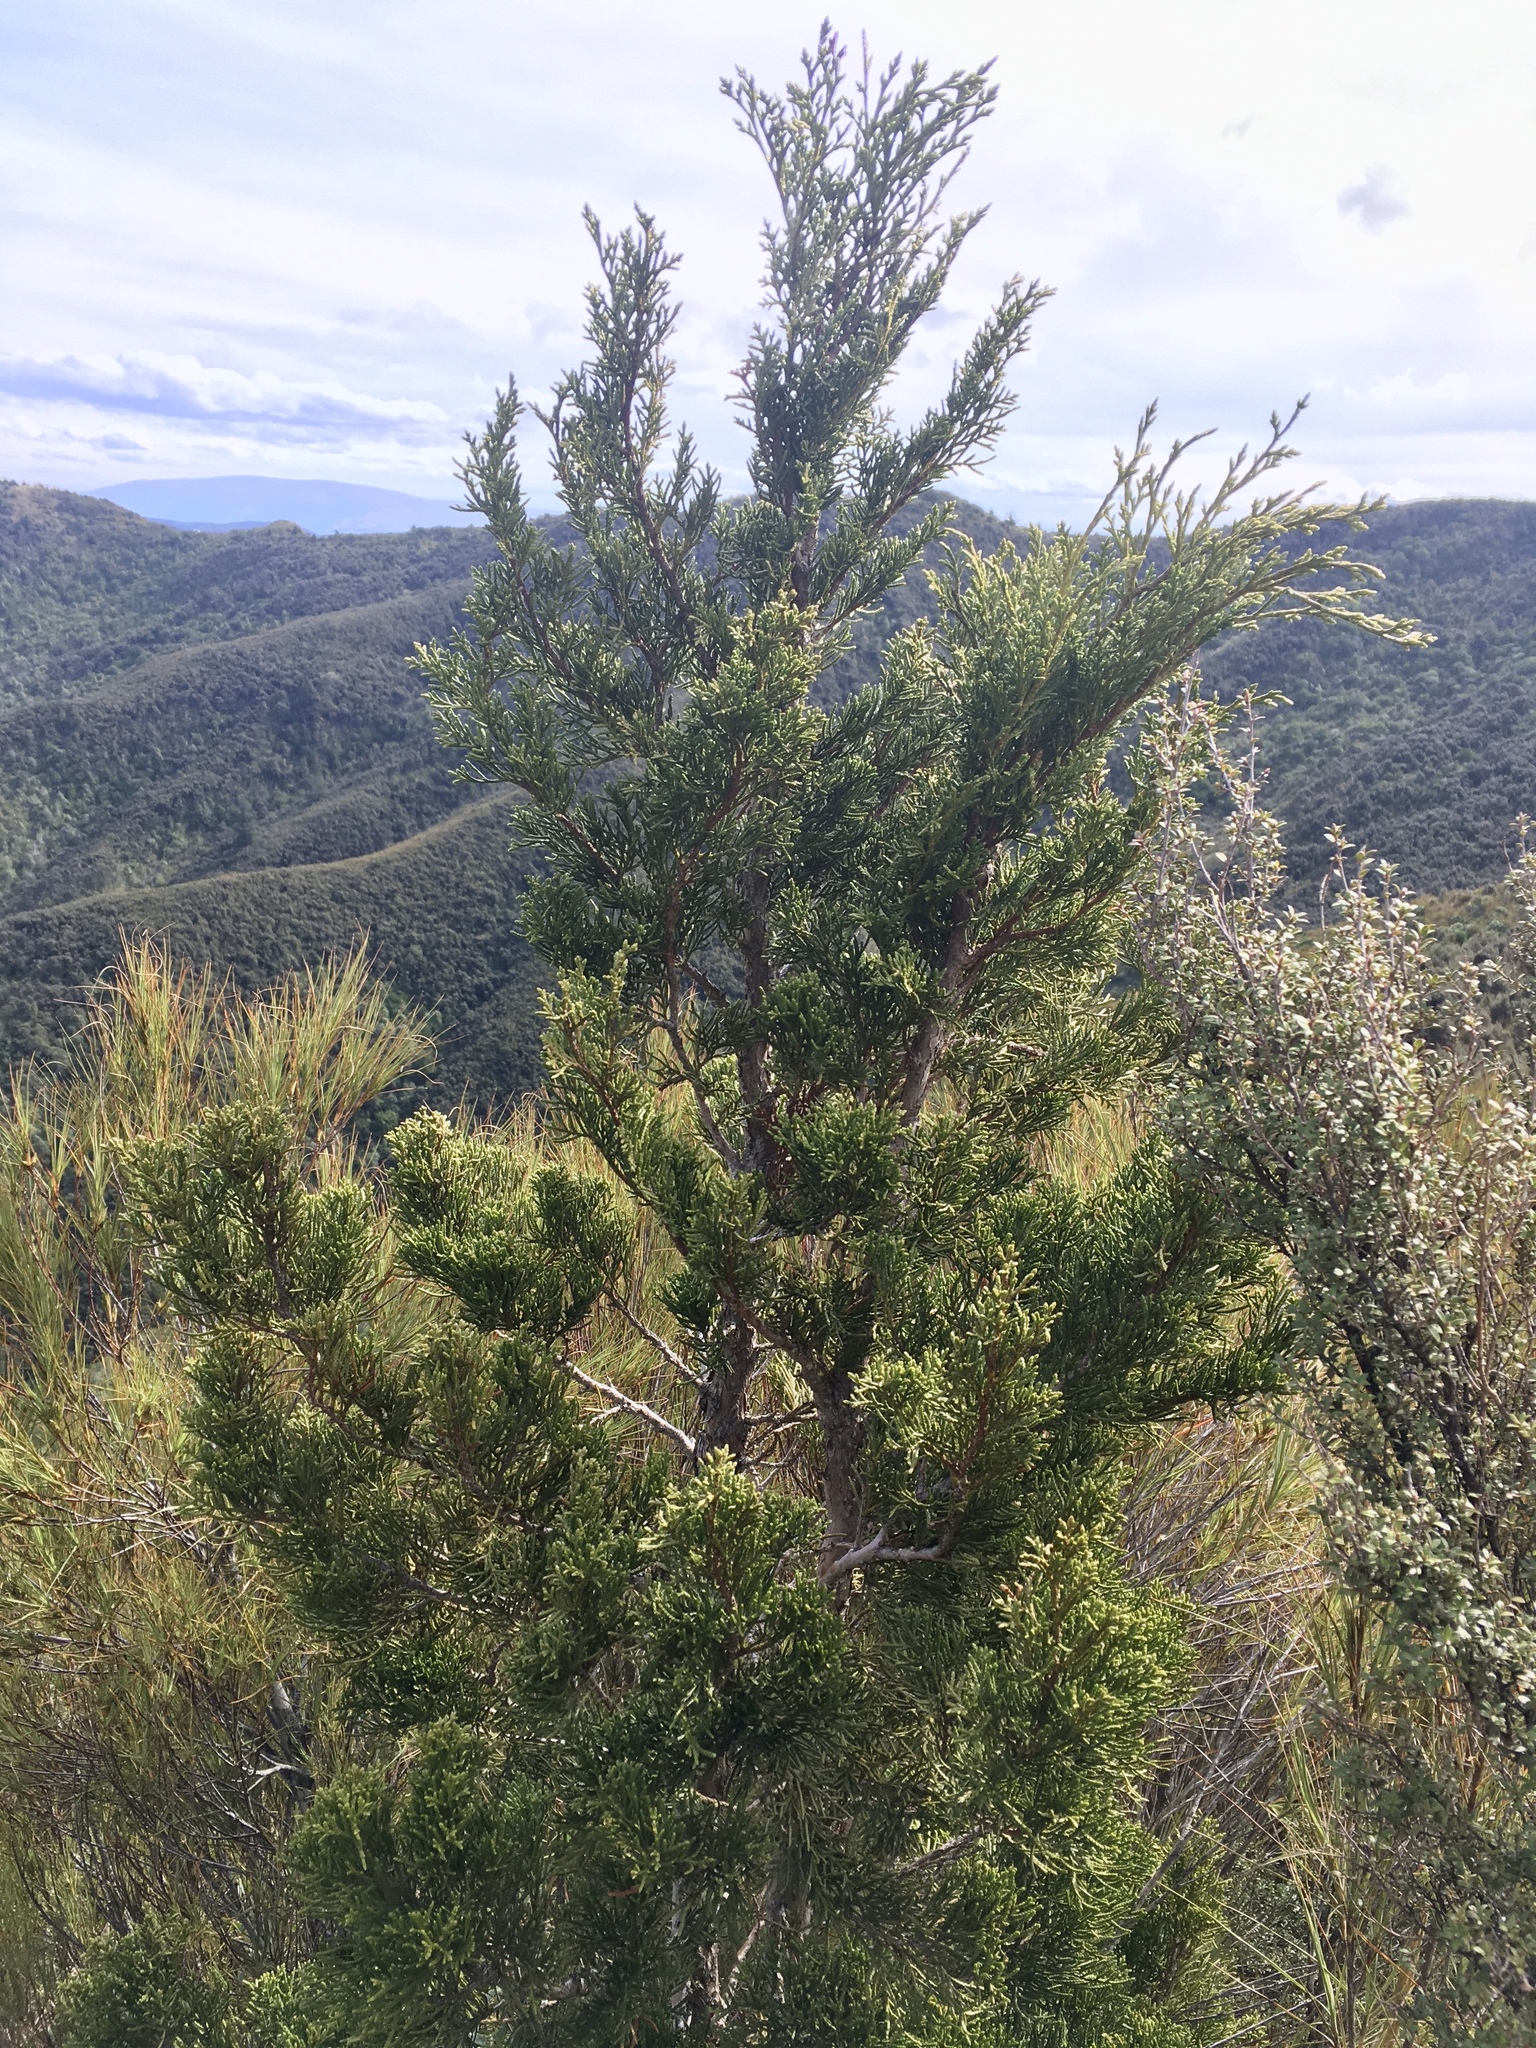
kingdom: Plantae
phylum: Tracheophyta
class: Pinopsida
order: Pinales
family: Cupressaceae
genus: Libocedrus
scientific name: Libocedrus bidwillii
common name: Cedar
